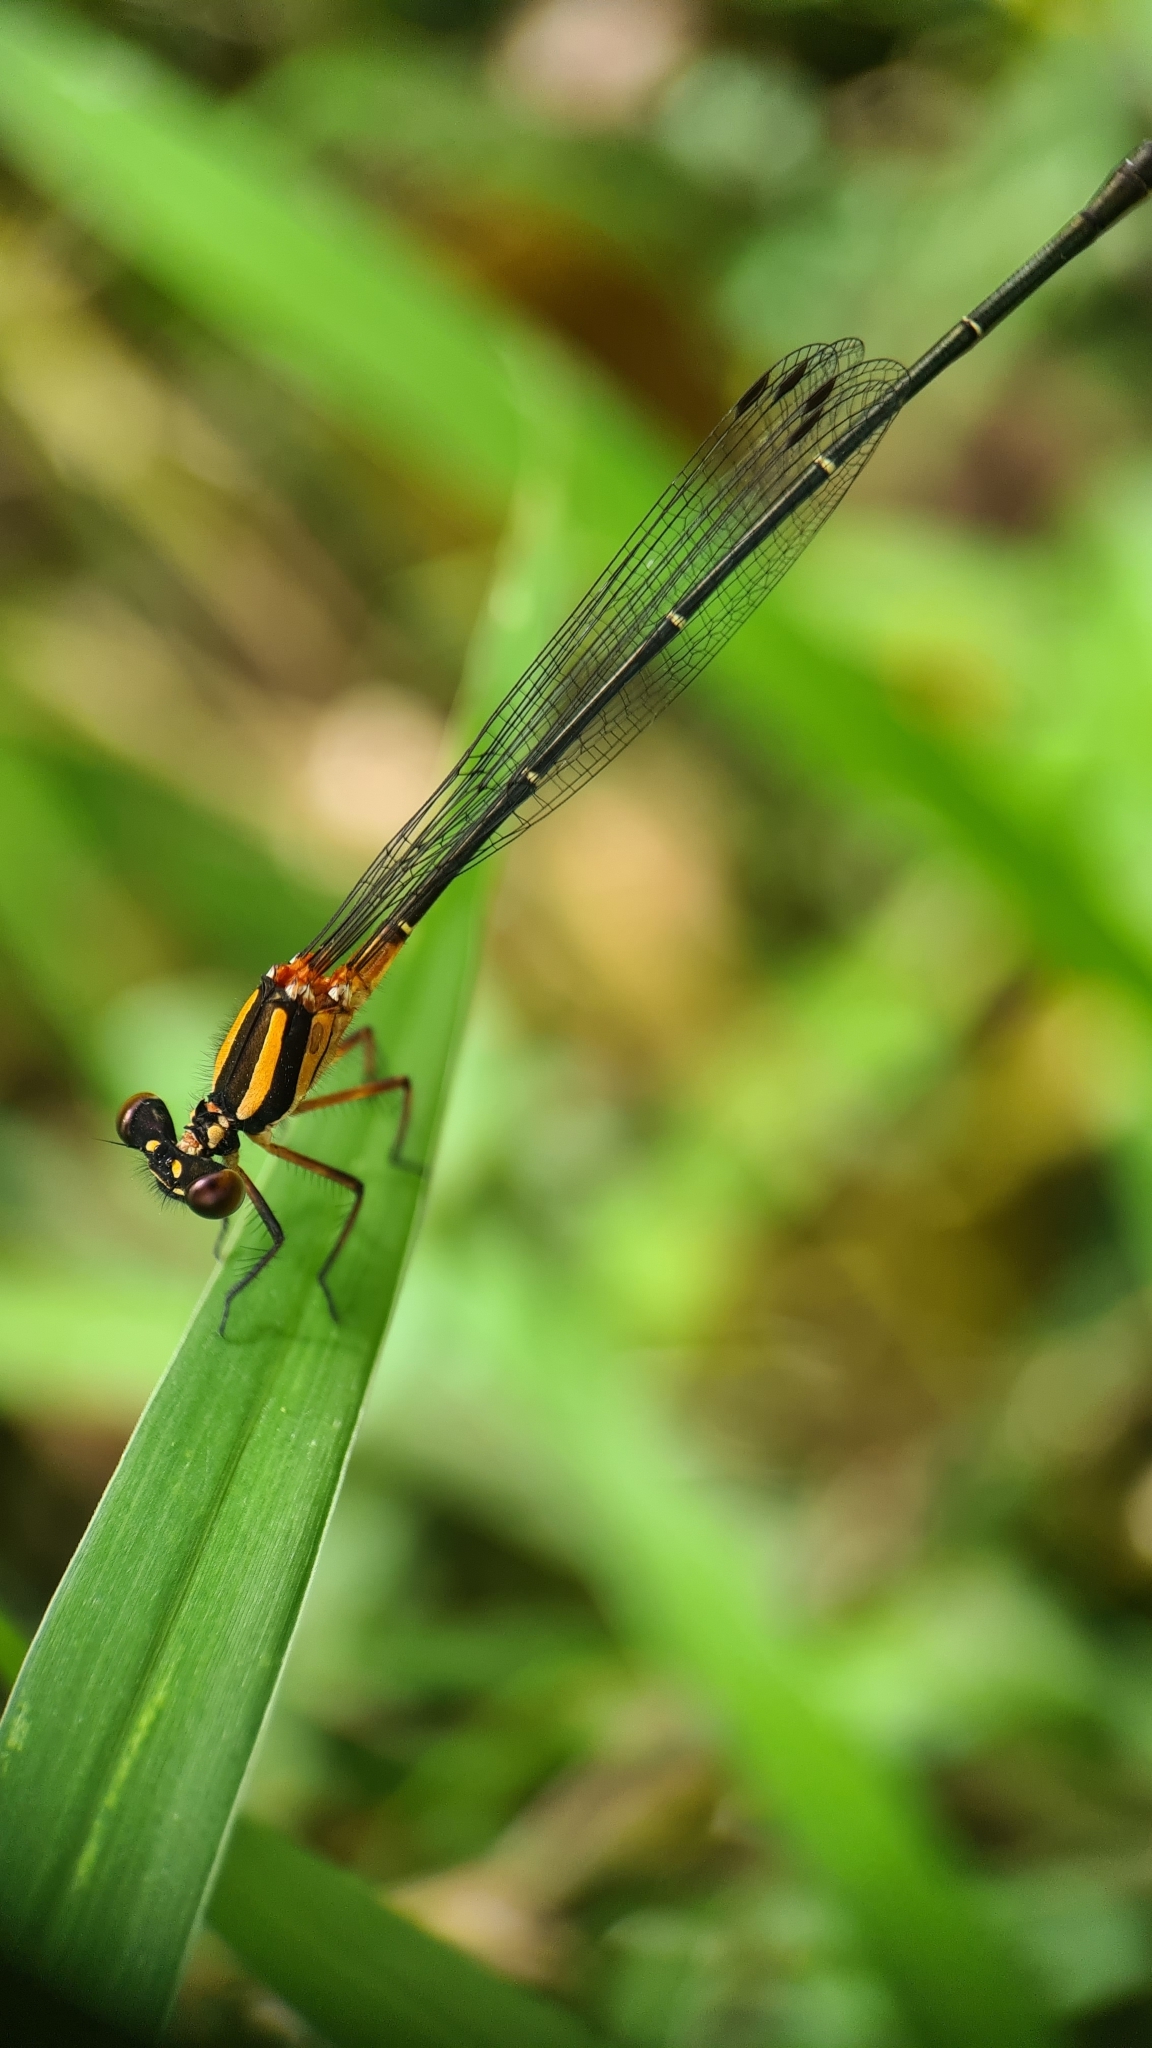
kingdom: Animalia
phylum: Arthropoda
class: Insecta
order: Odonata
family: Platycnemididae
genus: Nososticta
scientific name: Nososticta solida
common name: Orange threadtail
